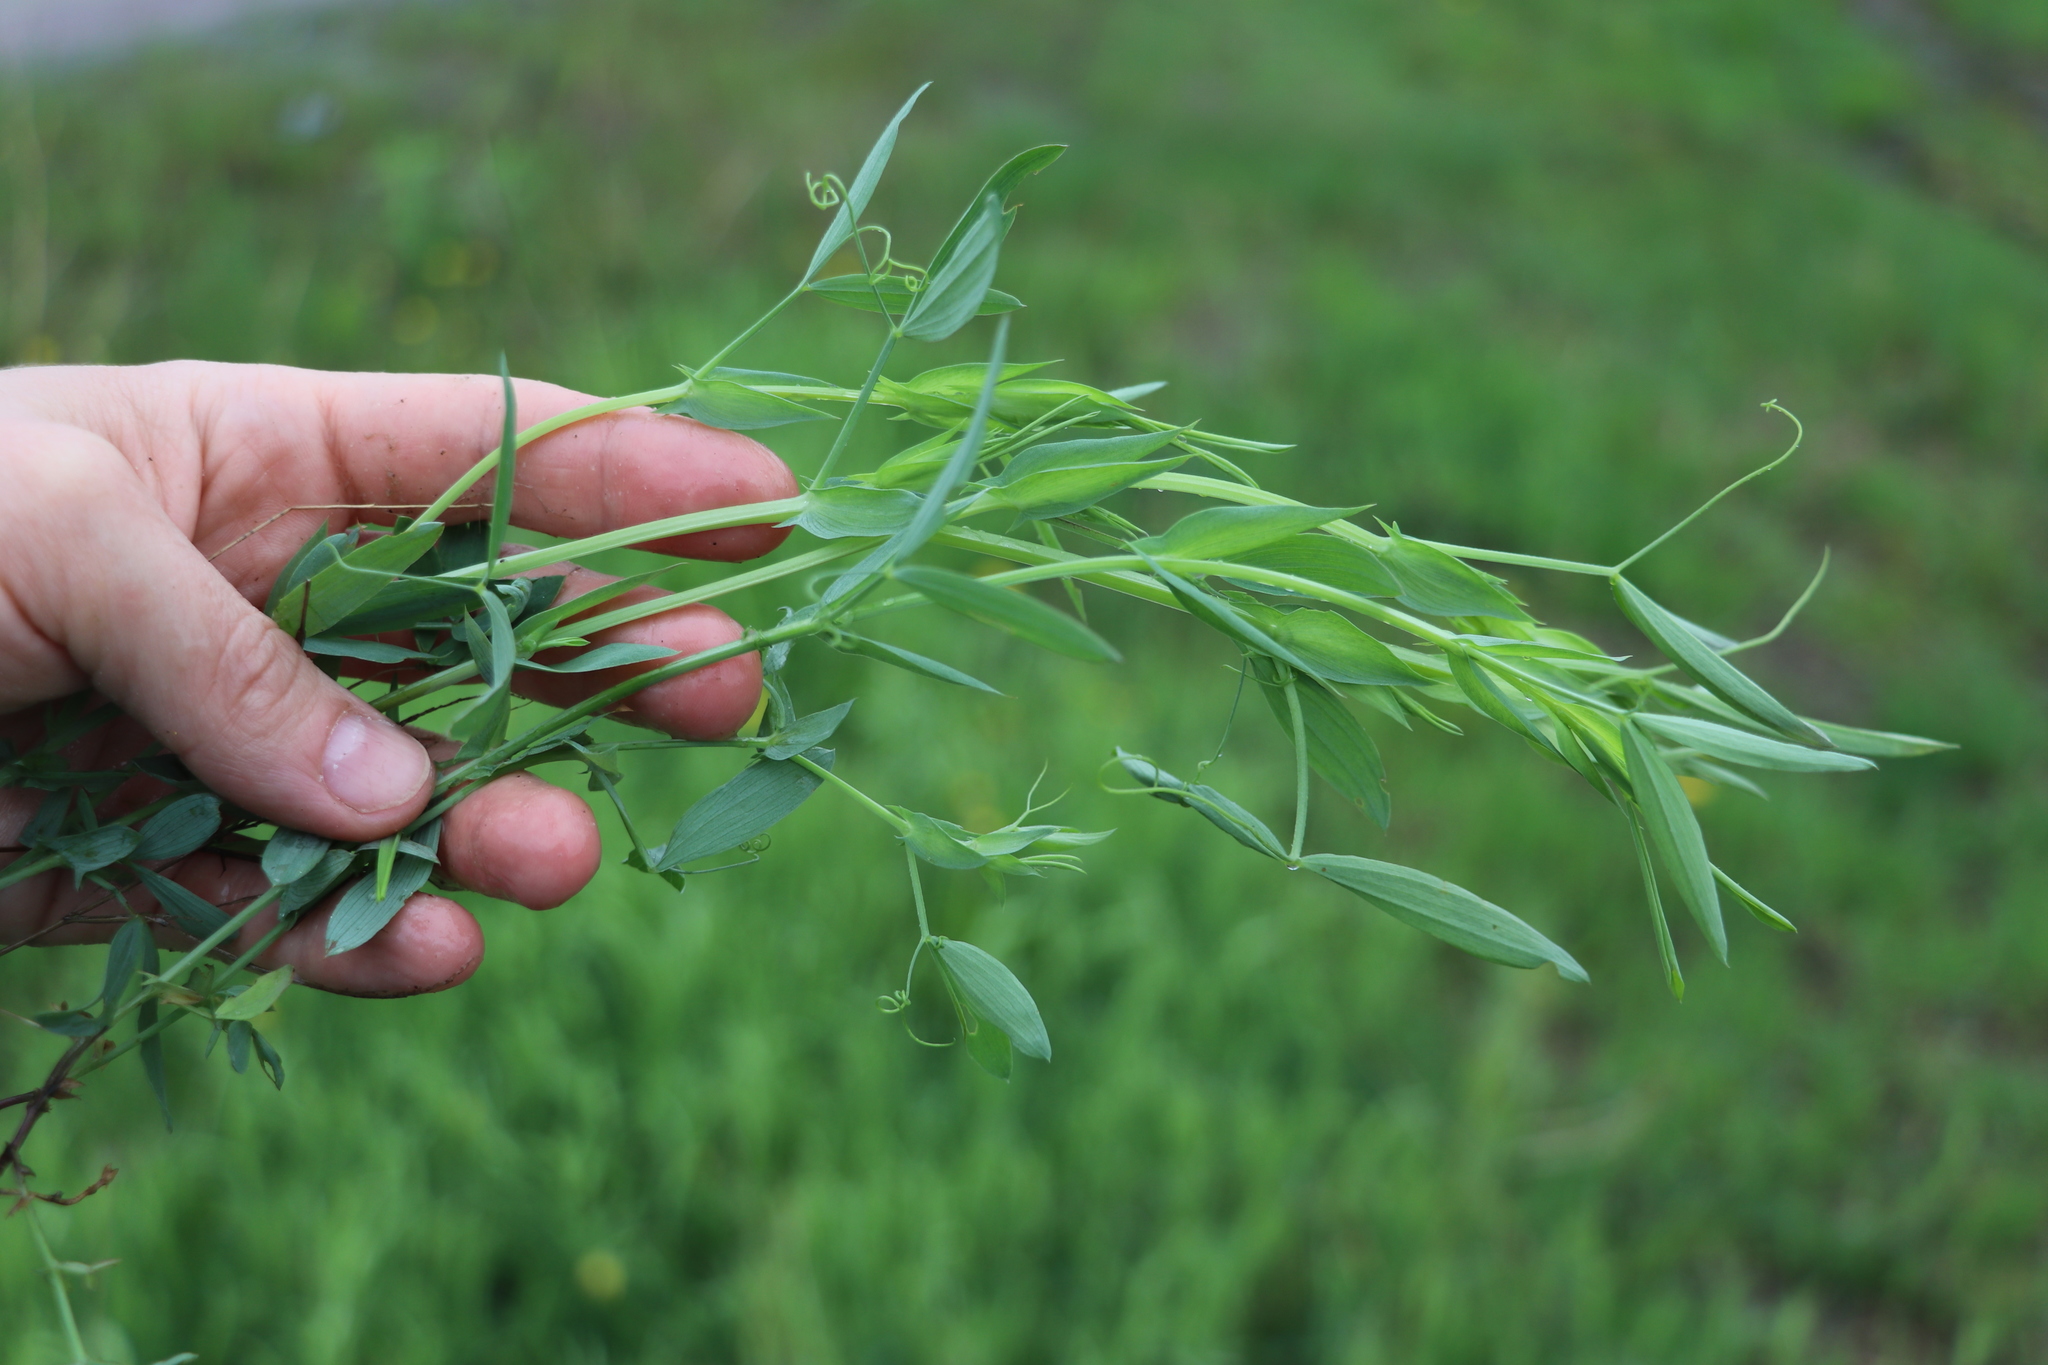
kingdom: Plantae
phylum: Tracheophyta
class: Magnoliopsida
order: Fabales
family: Fabaceae
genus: Lathyrus
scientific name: Lathyrus pratensis
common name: Meadow vetchling
